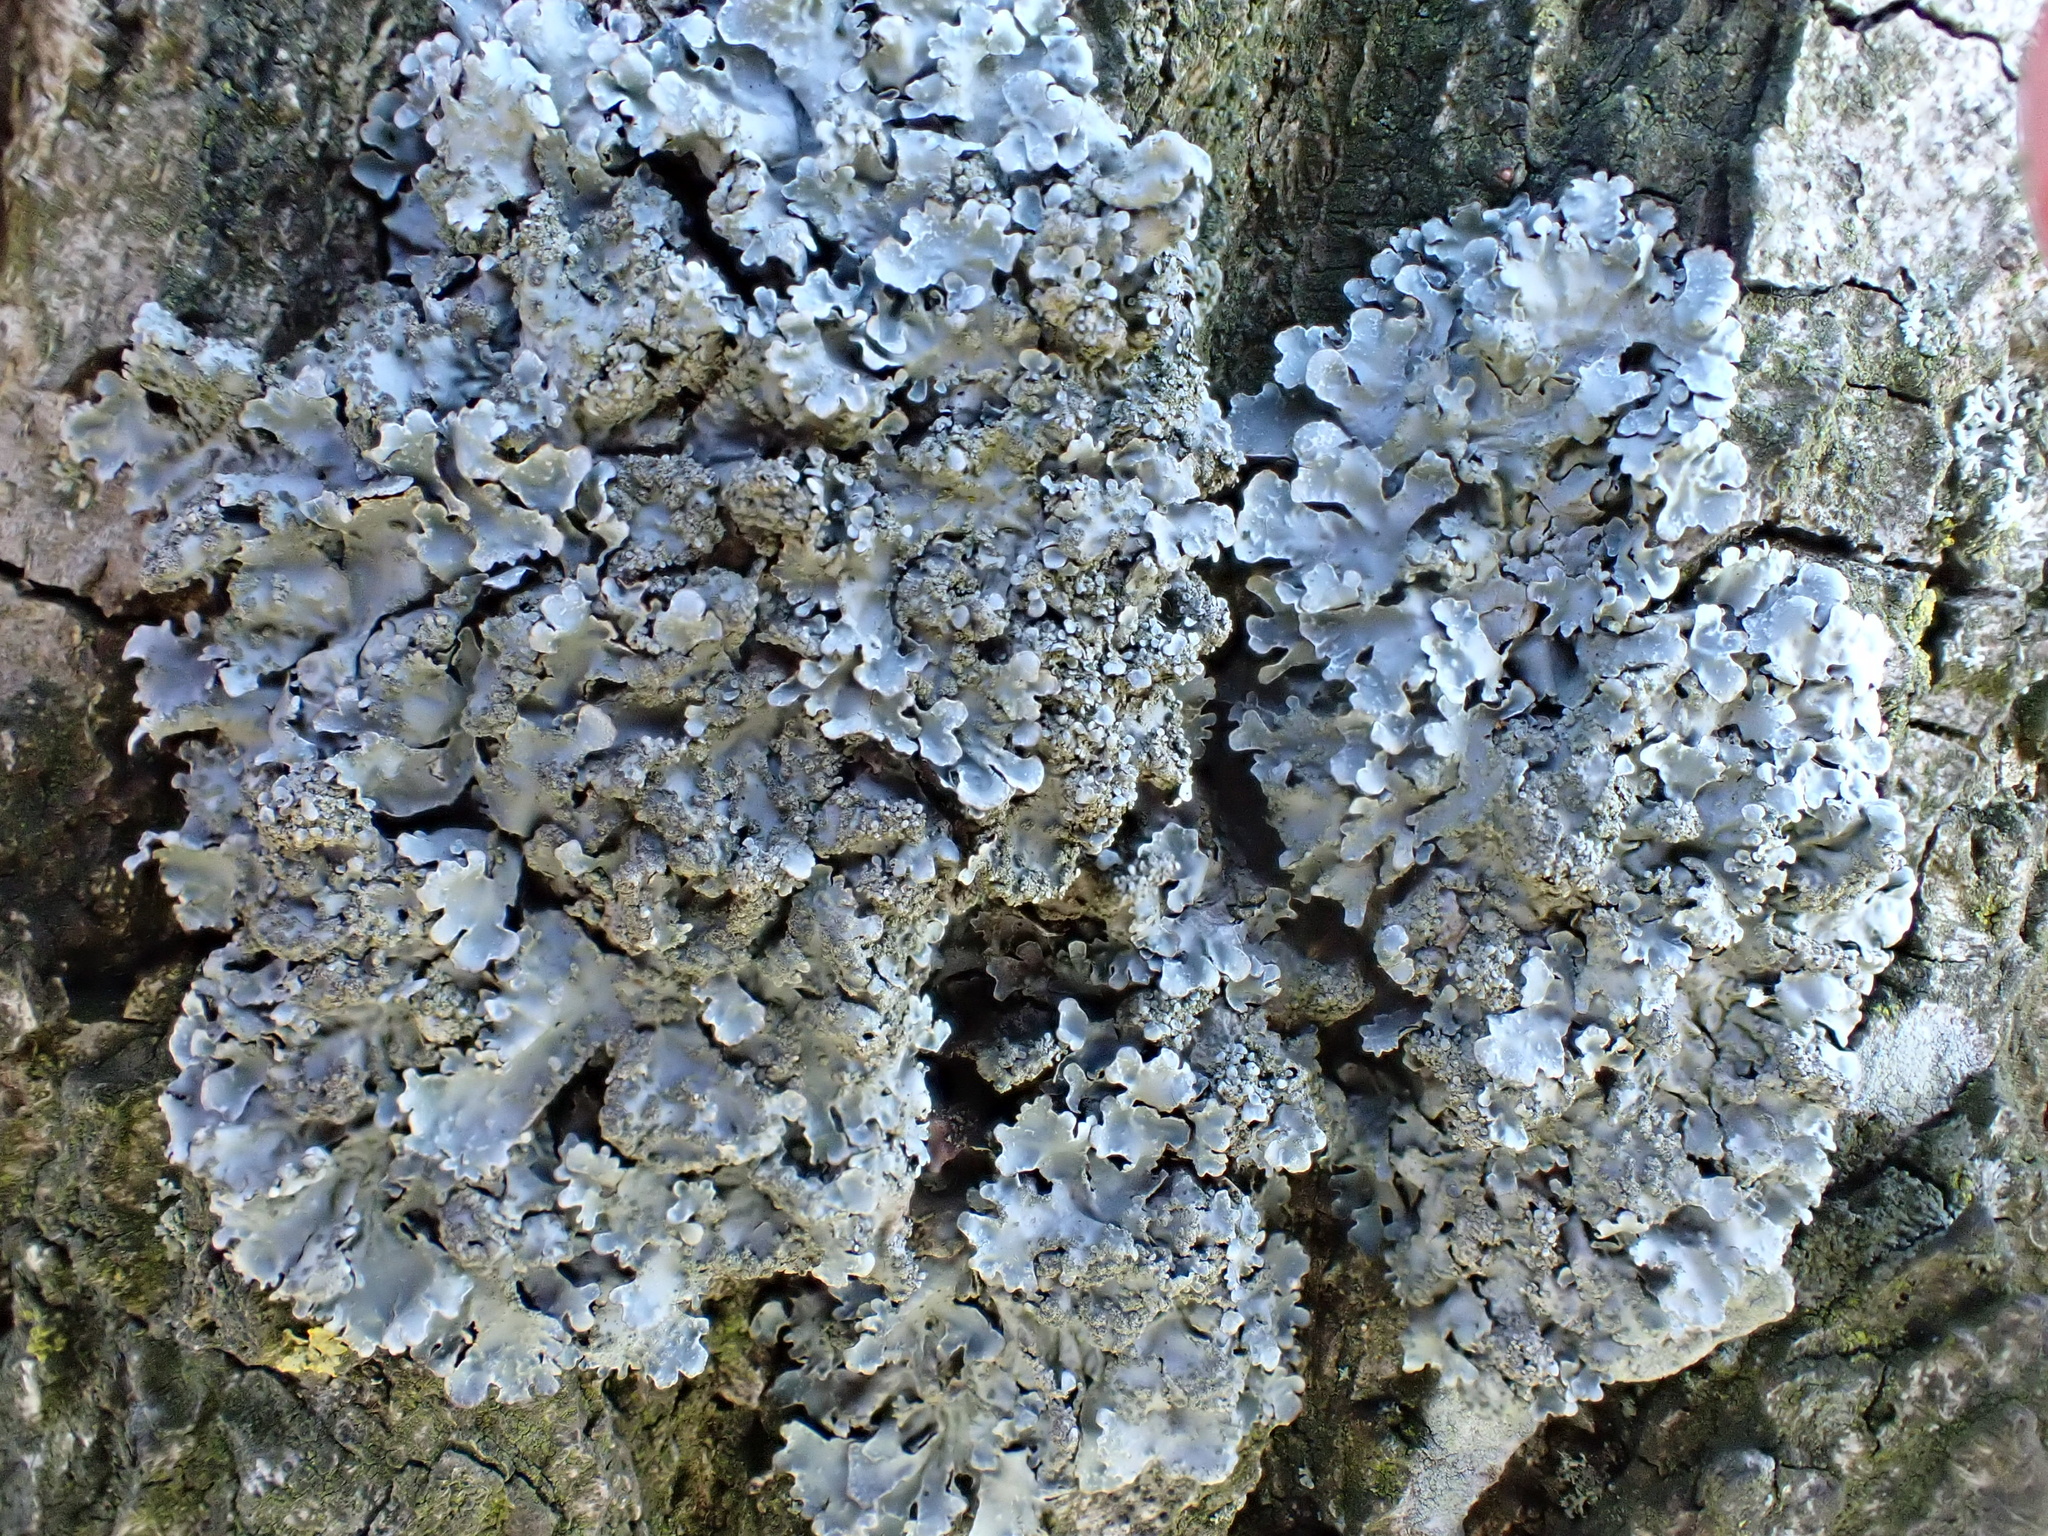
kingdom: Fungi
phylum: Ascomycota
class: Lecanoromycetes
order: Lecanorales
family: Parmeliaceae
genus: Parmelia
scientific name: Parmelia sulcata
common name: Netted shield lichen
